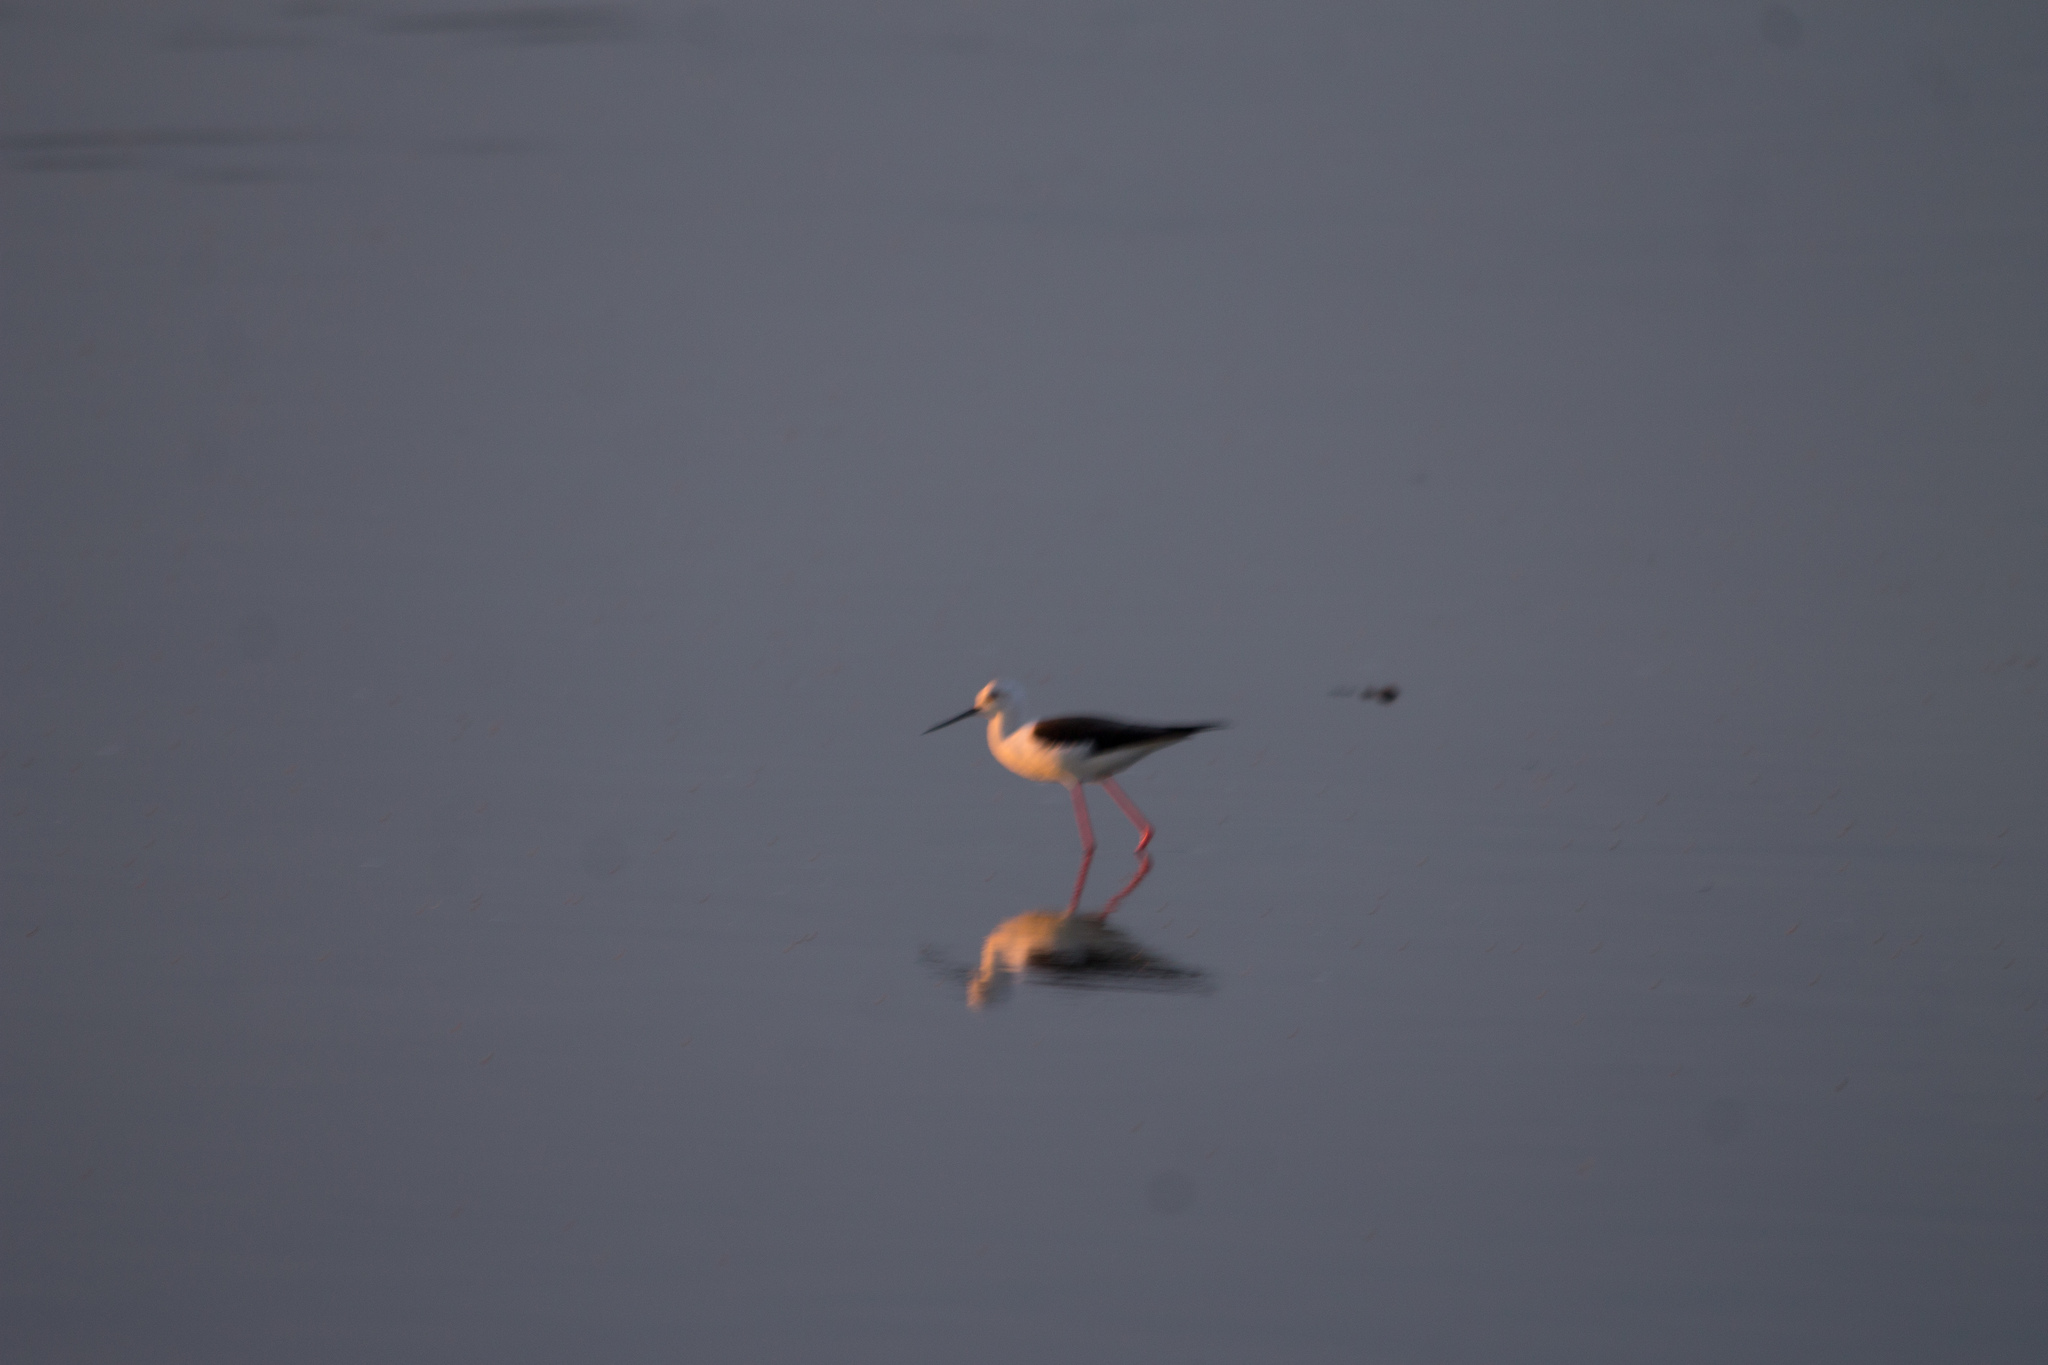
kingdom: Animalia
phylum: Chordata
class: Aves
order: Charadriiformes
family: Recurvirostridae
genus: Himantopus
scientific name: Himantopus himantopus
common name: Black-winged stilt
